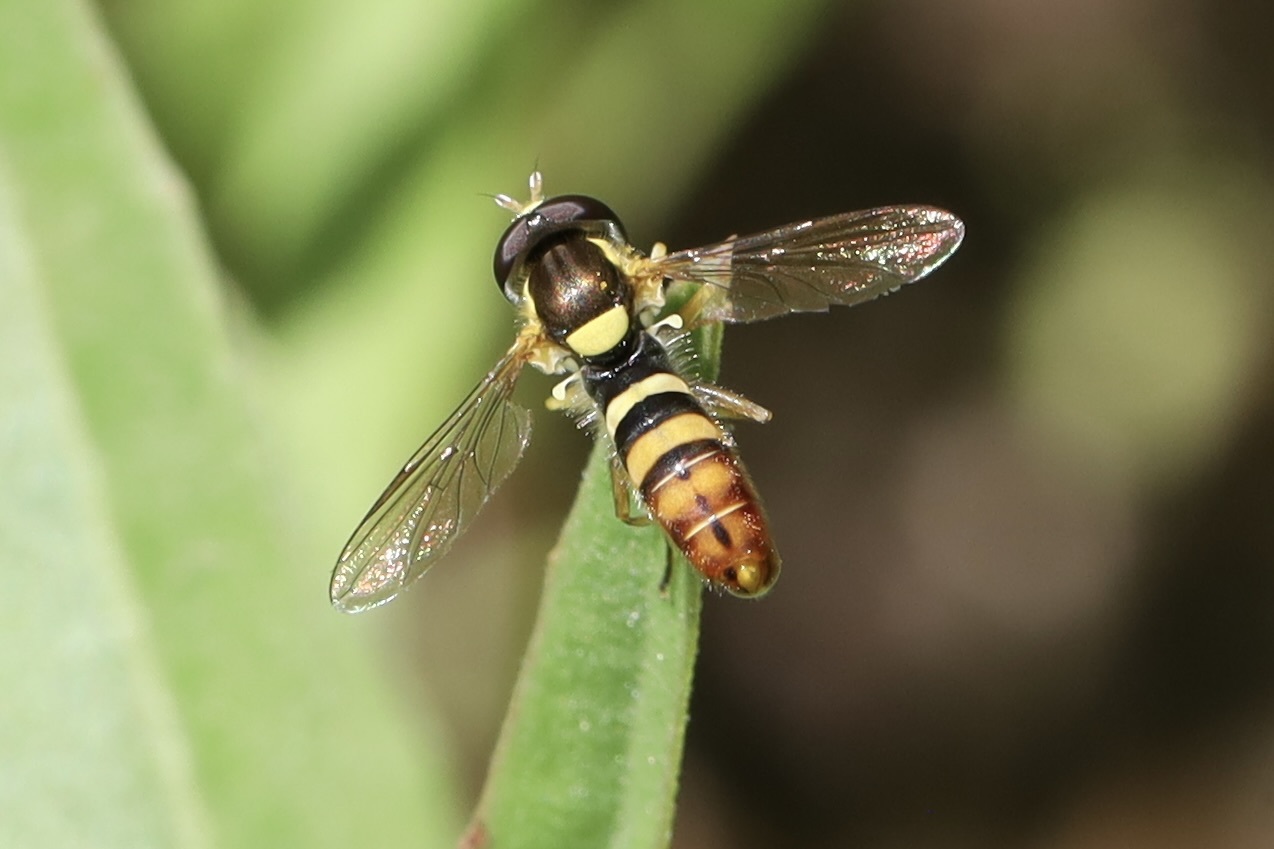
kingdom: Animalia
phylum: Arthropoda
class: Insecta
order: Diptera
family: Syrphidae
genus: Sphaerophoria
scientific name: Sphaerophoria sulphuripes
